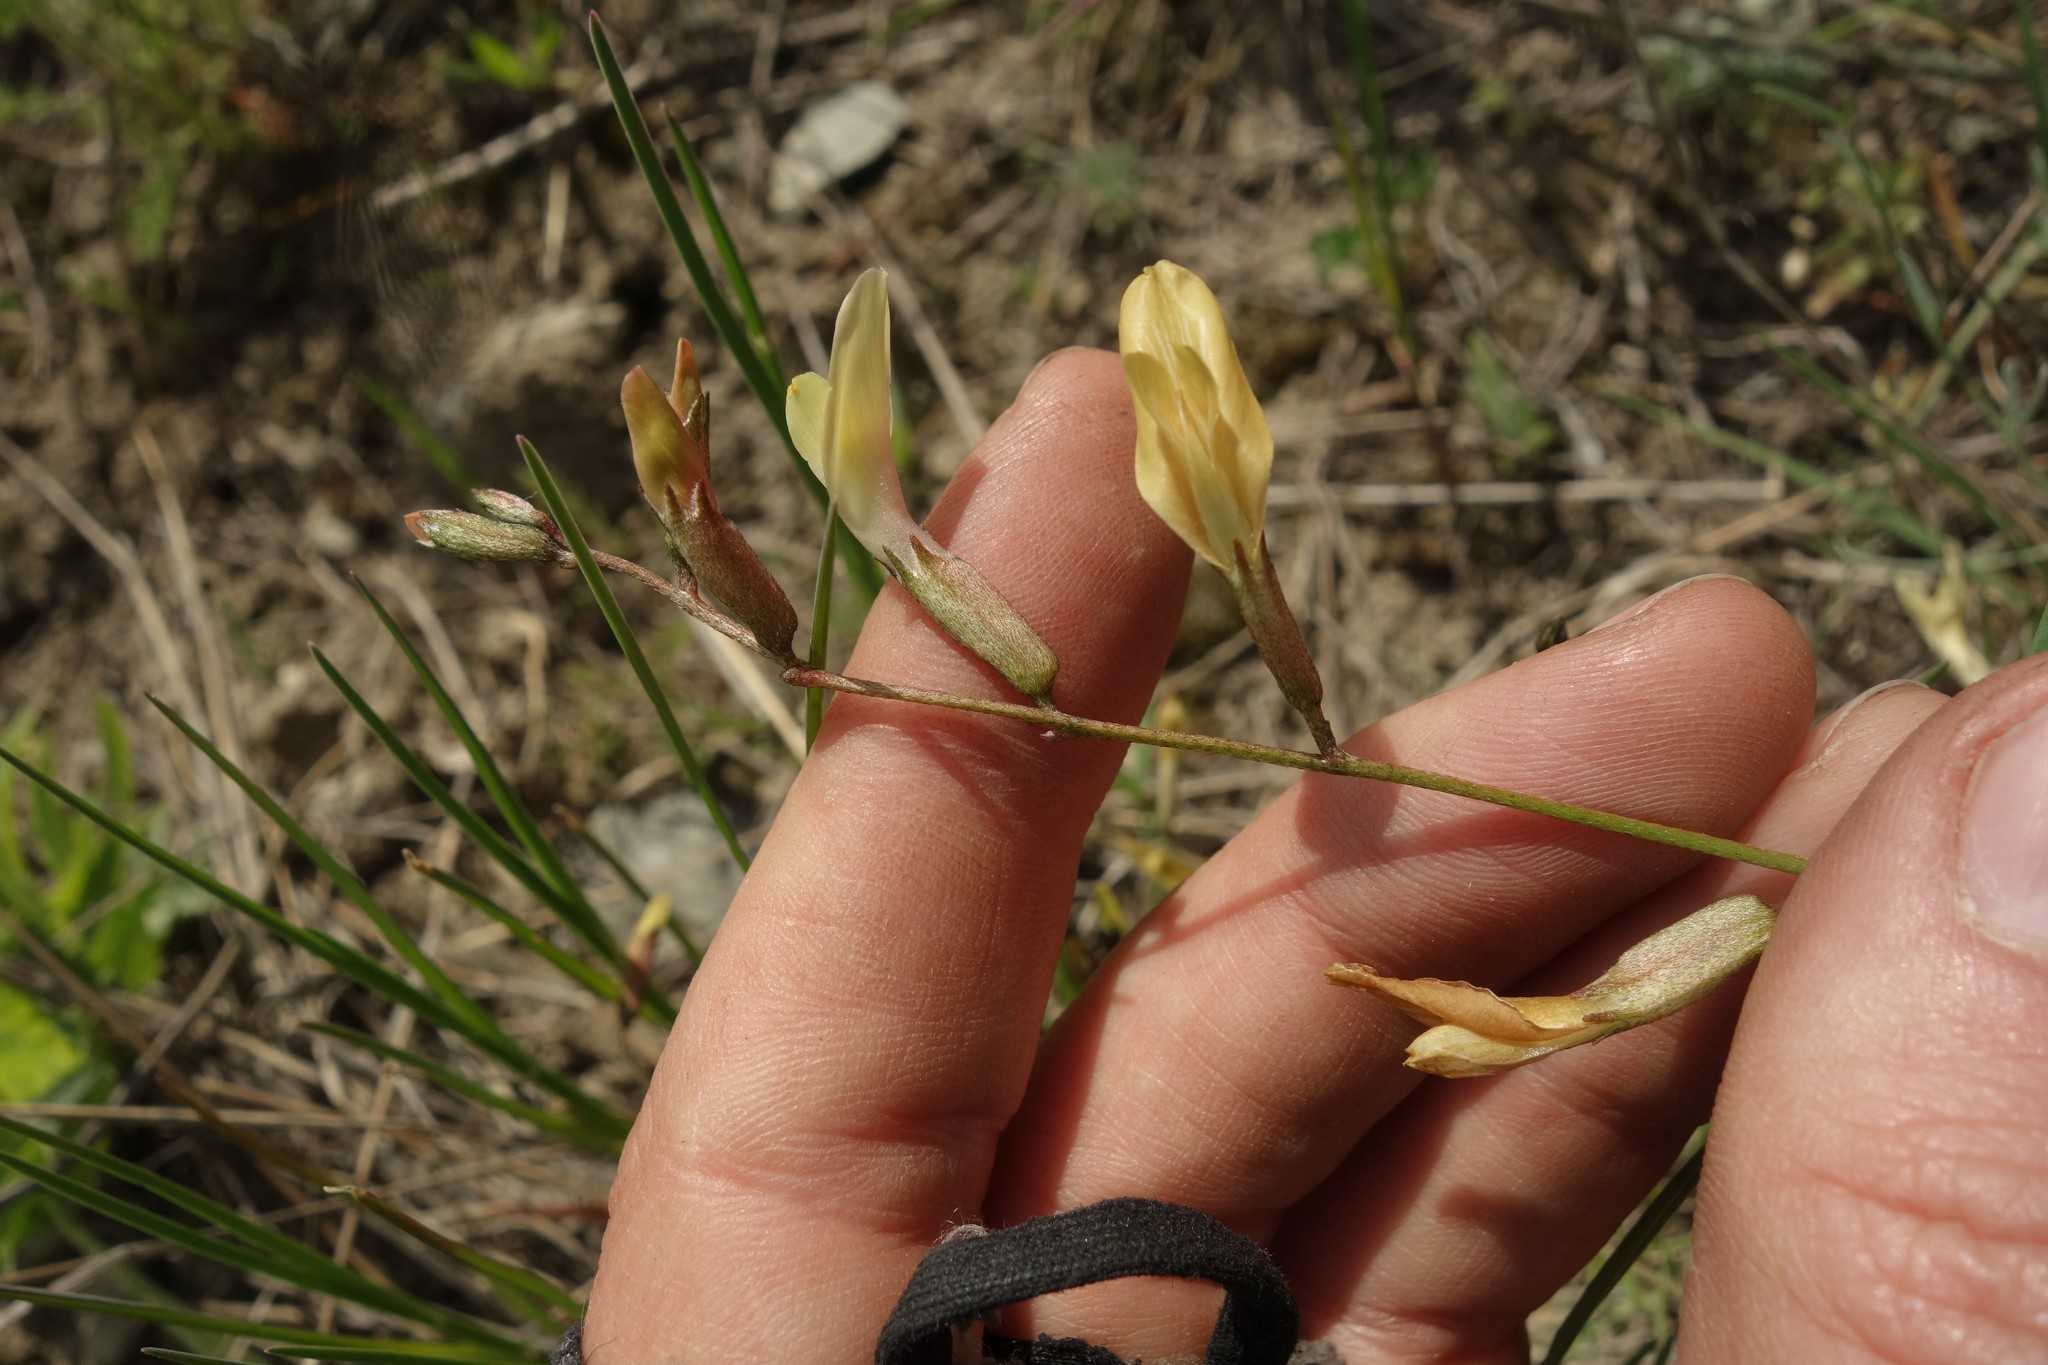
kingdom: Plantae
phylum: Tracheophyta
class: Magnoliopsida
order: Fabales
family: Fabaceae
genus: Astragalus
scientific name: Astragalus ucrainicus
